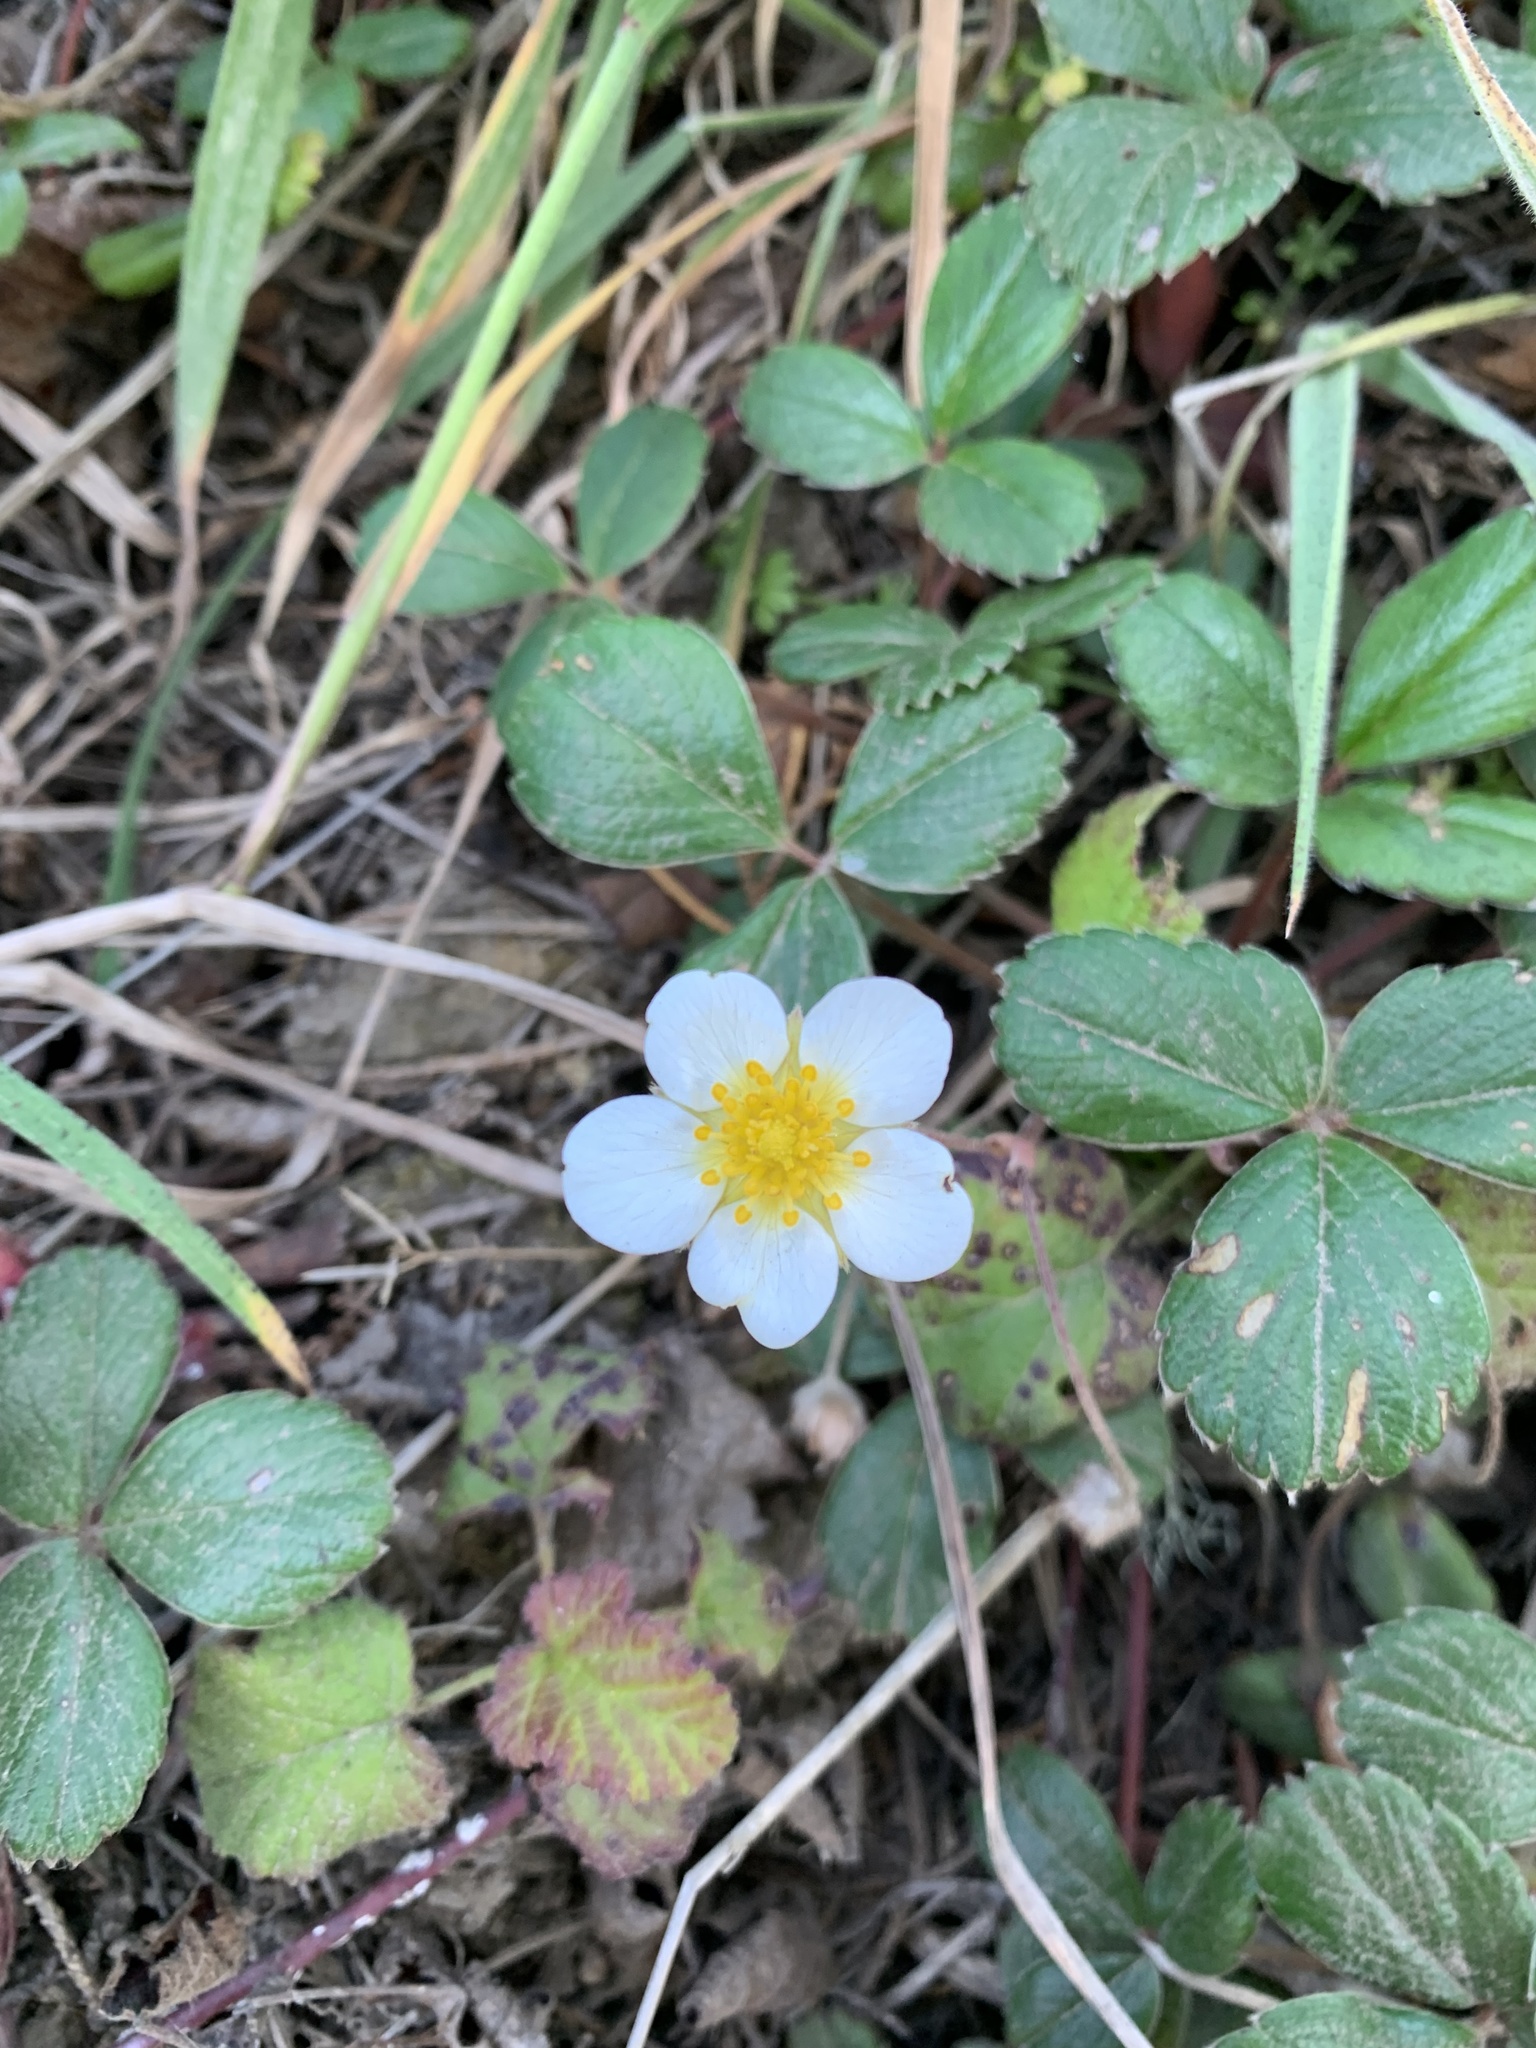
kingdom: Plantae
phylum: Tracheophyta
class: Magnoliopsida
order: Rosales
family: Rosaceae
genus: Fragaria
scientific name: Fragaria chiloensis
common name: Beach strawberry
